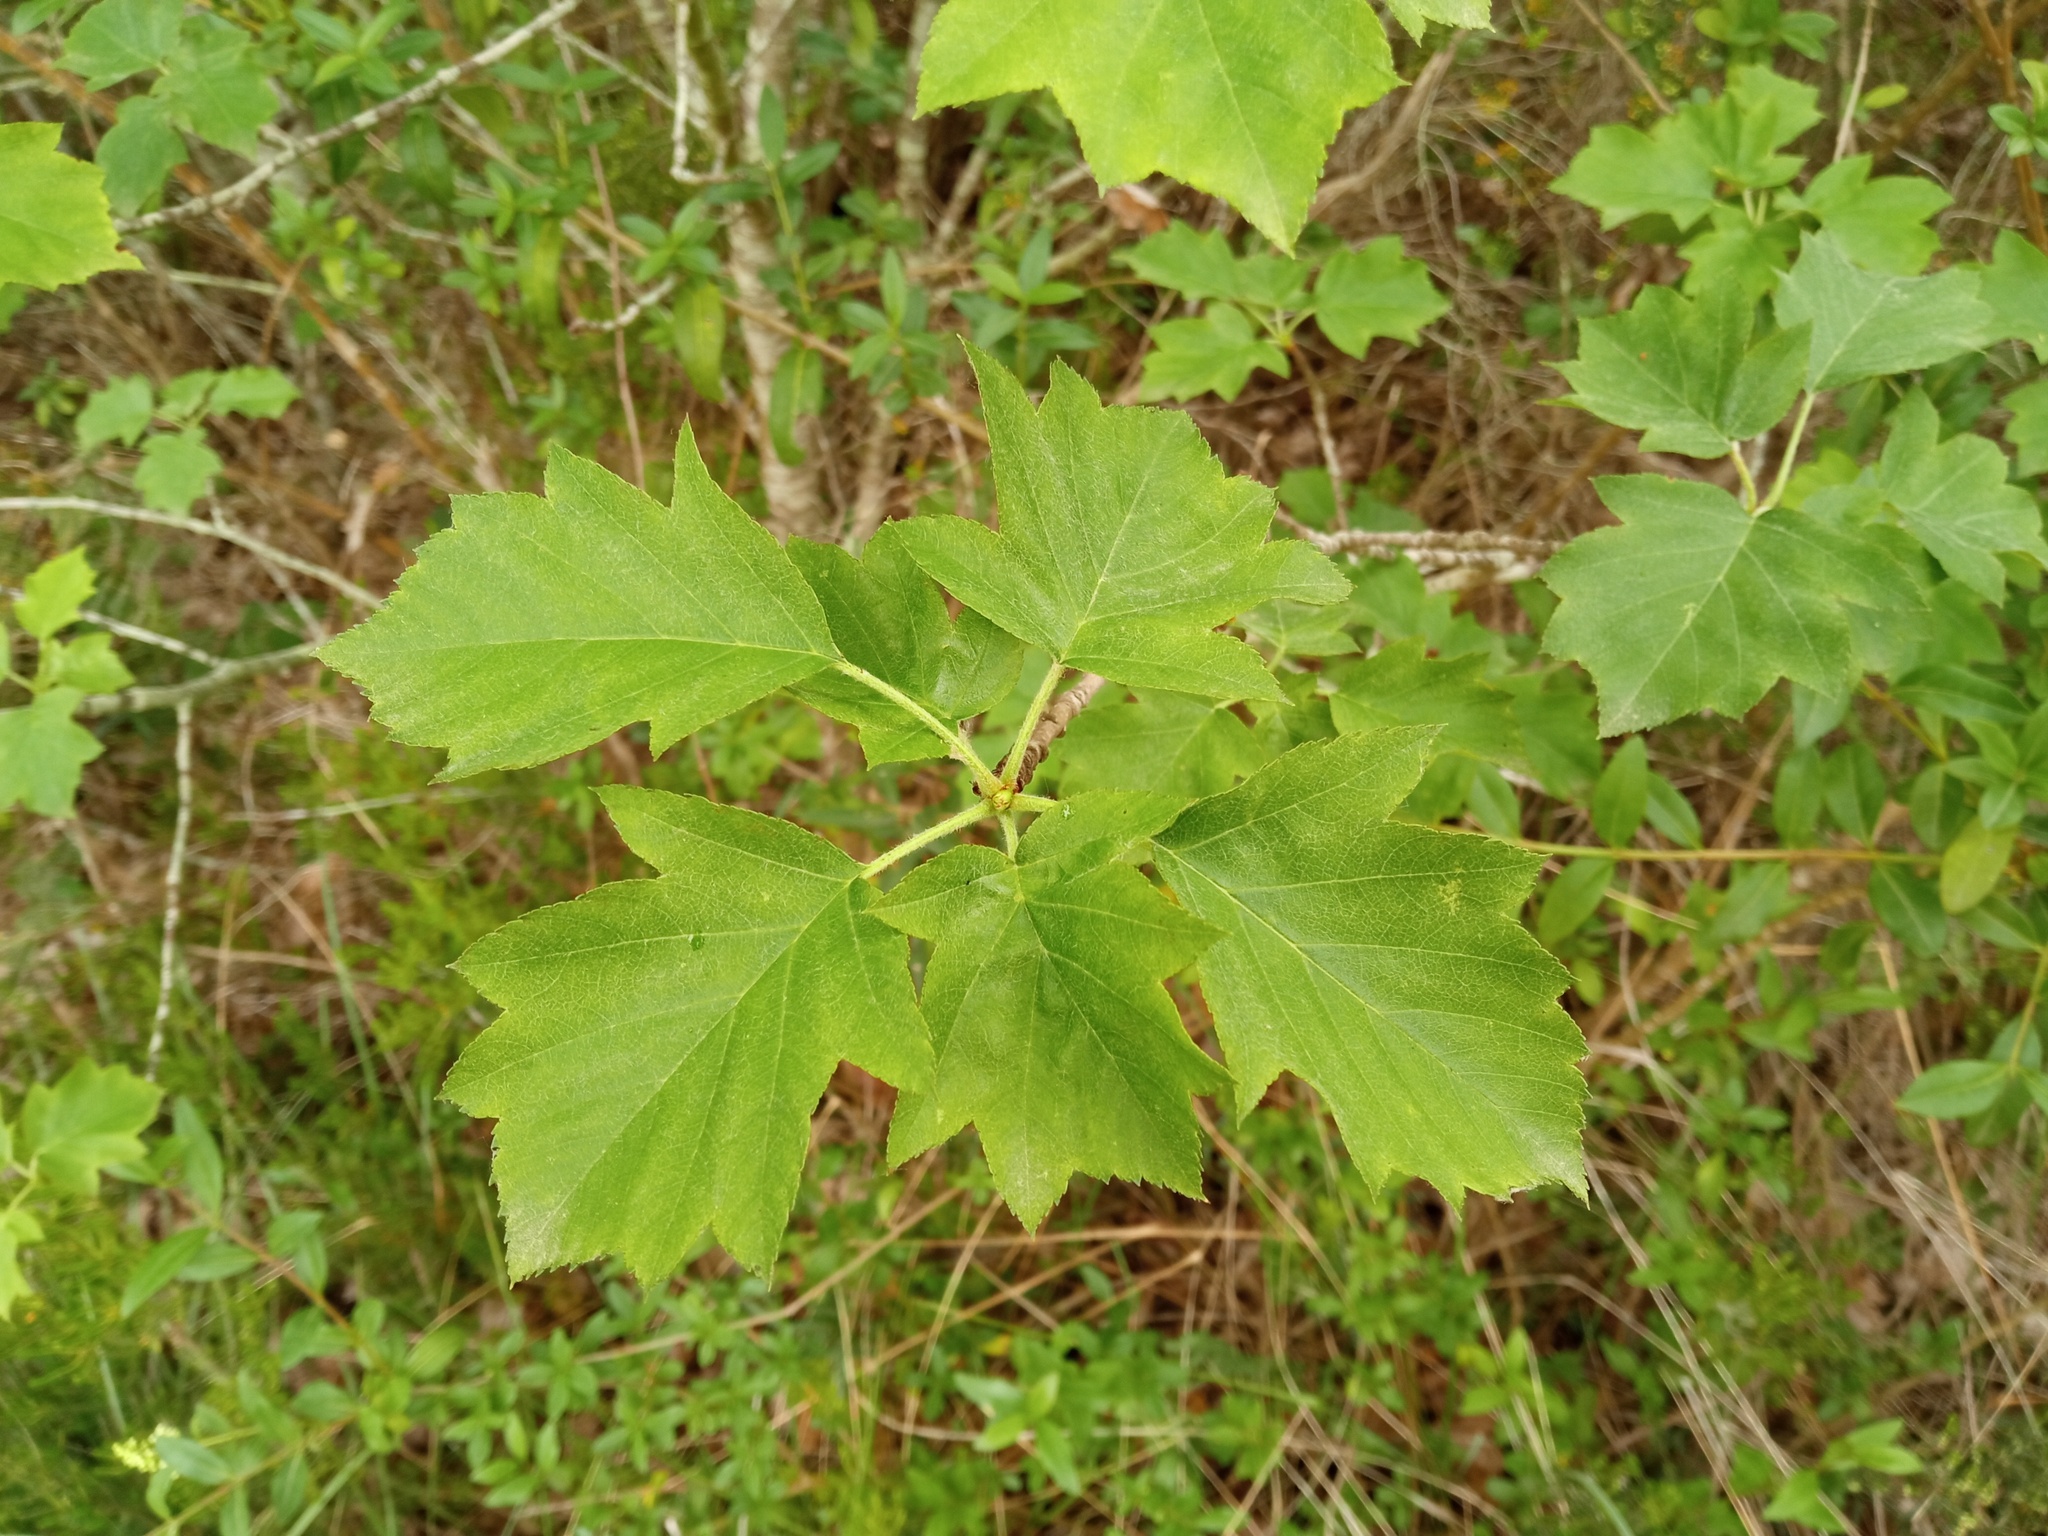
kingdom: Plantae
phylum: Tracheophyta
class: Magnoliopsida
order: Rosales
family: Rosaceae
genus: Torminalis
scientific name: Torminalis glaberrima
